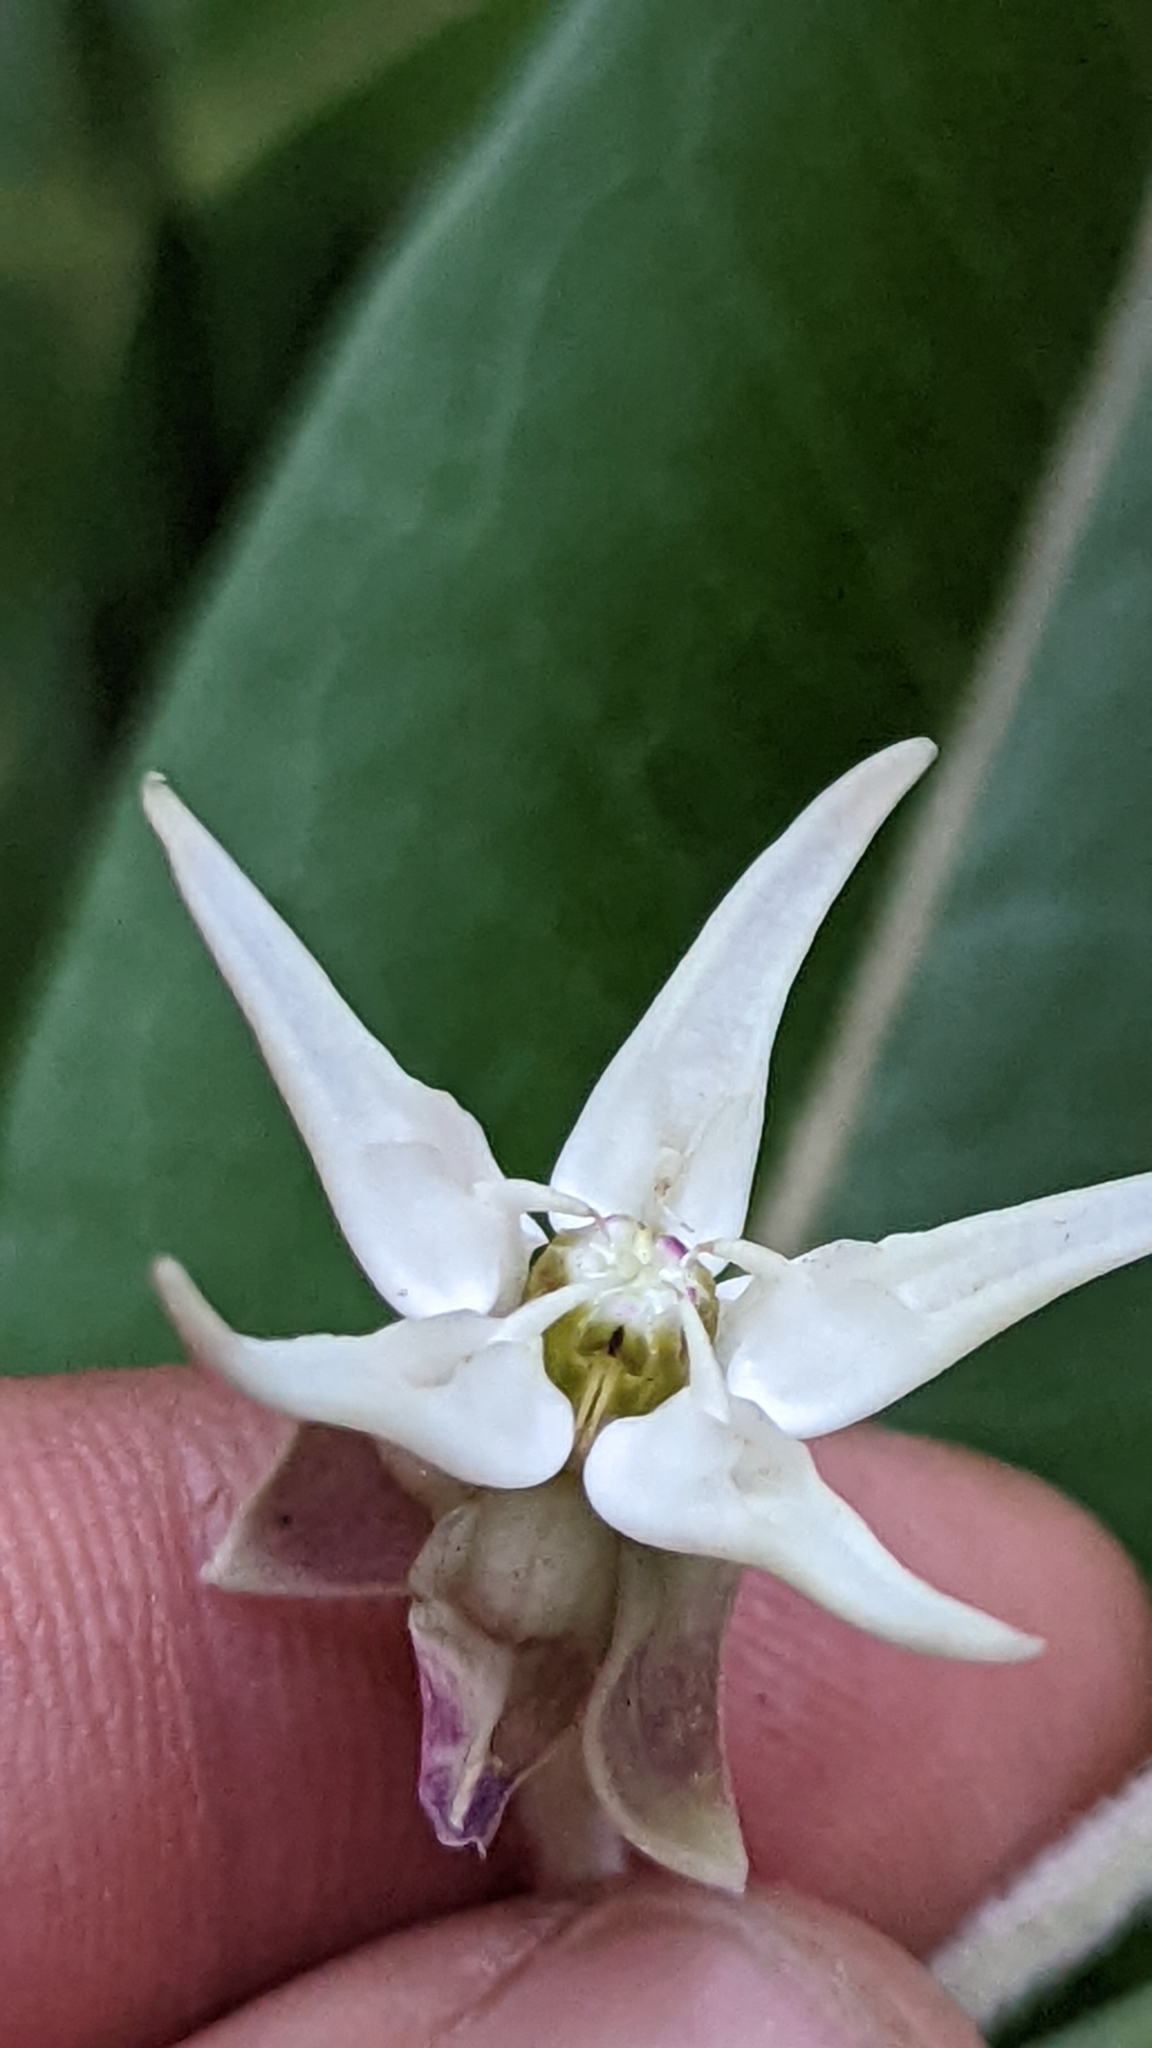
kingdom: Plantae
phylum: Tracheophyta
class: Magnoliopsida
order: Gentianales
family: Apocynaceae
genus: Asclepias
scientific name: Asclepias speciosa
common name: Showy milkweed
